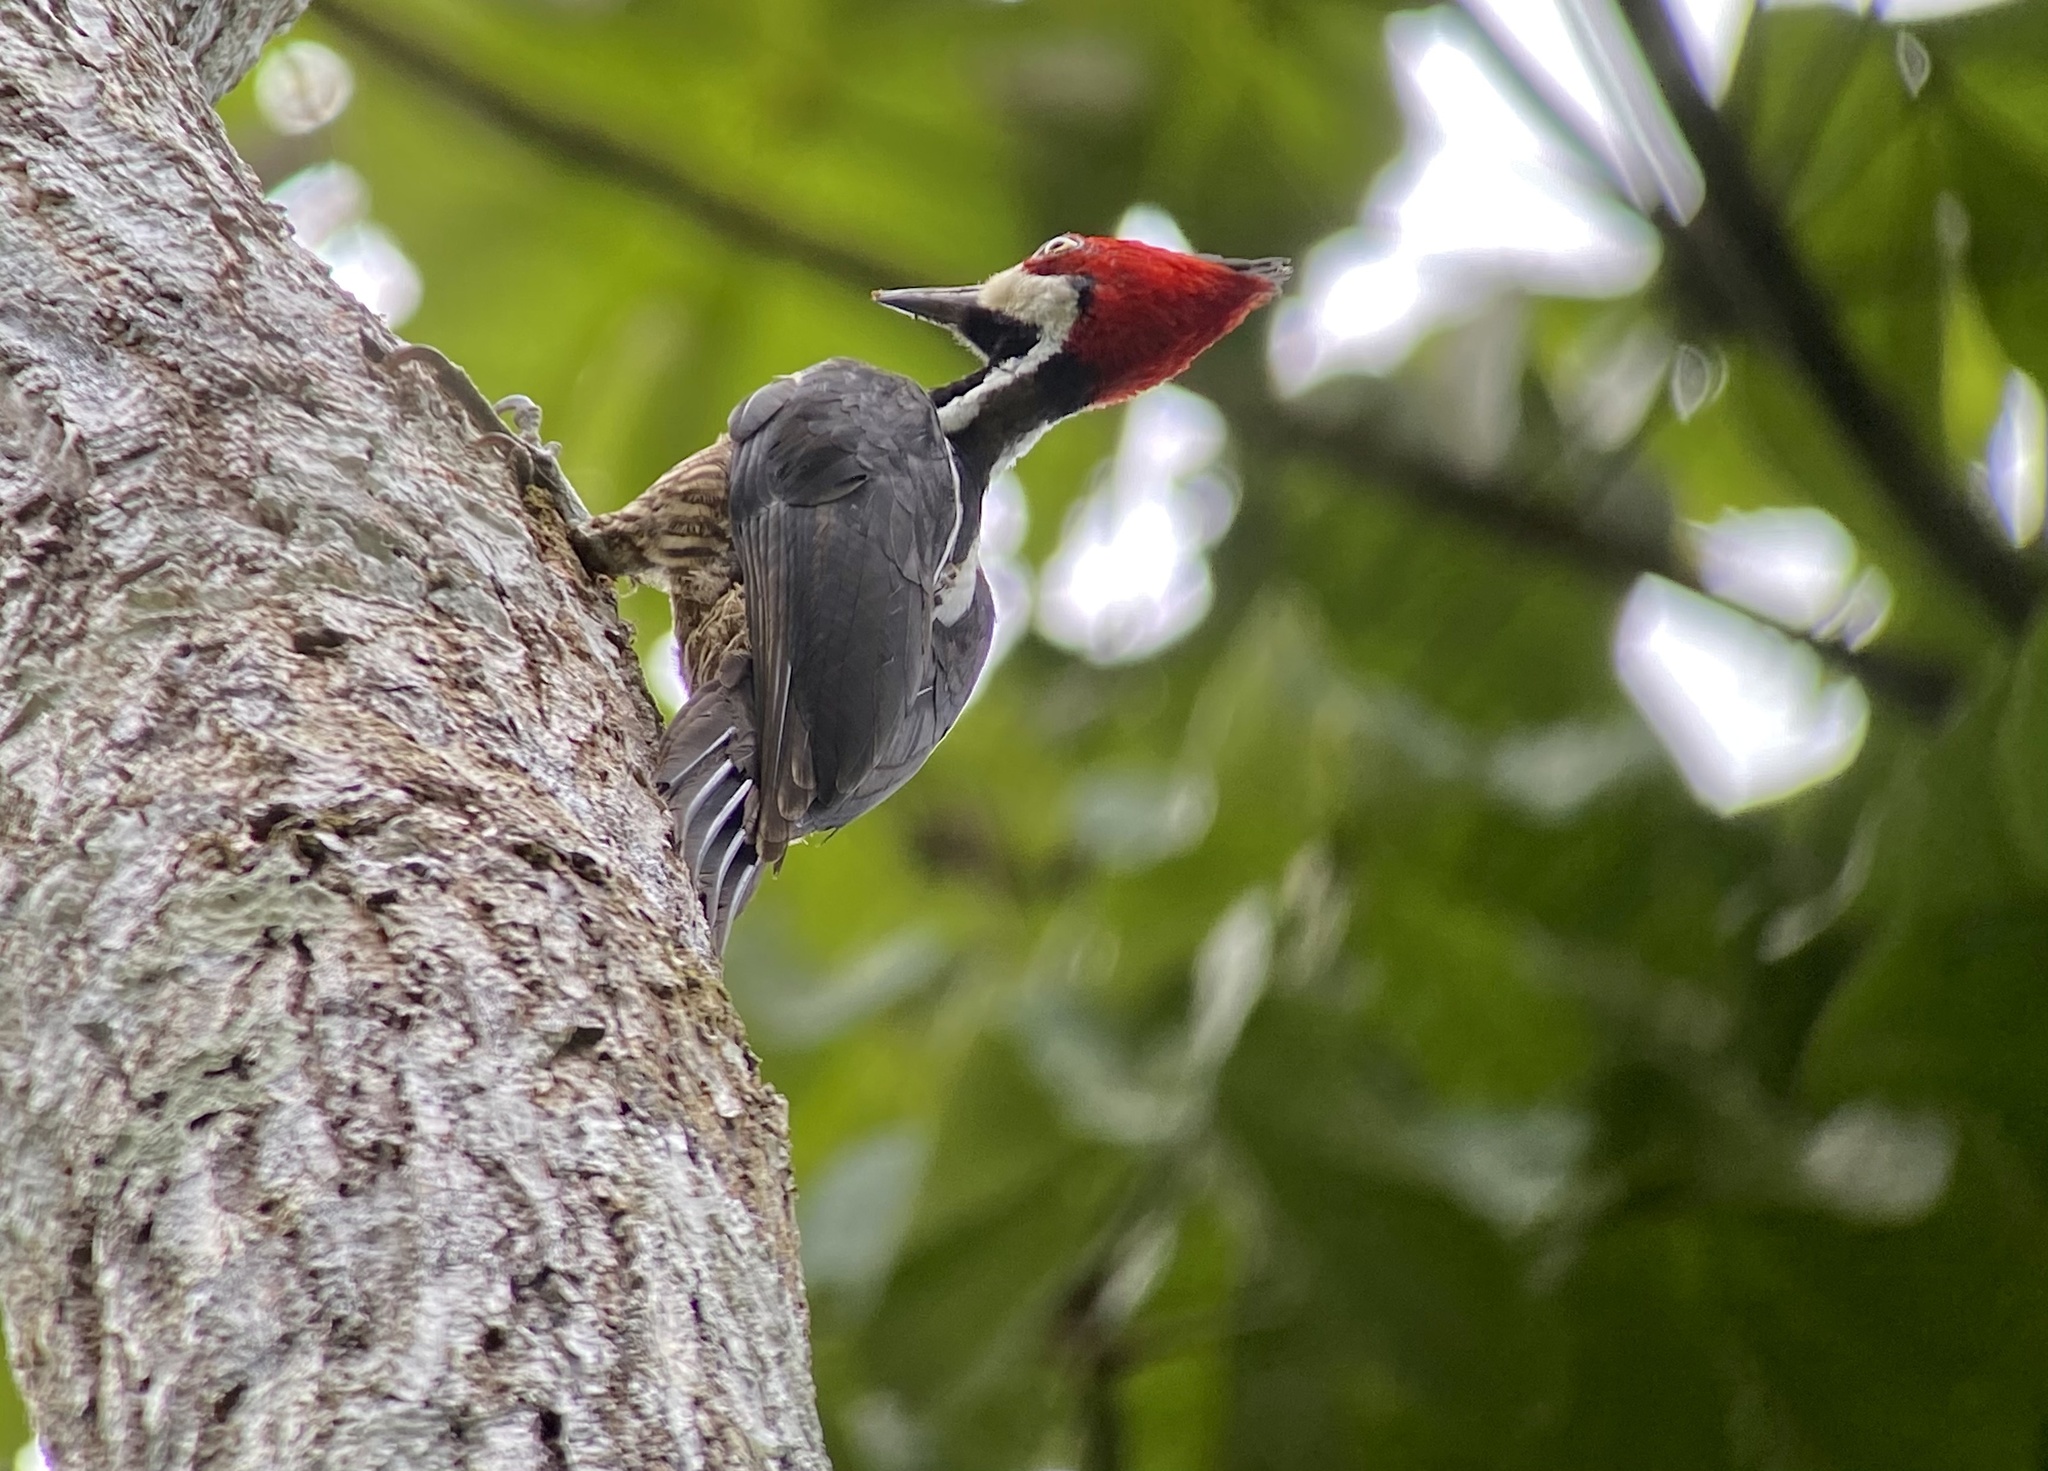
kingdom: Animalia
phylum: Chordata
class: Aves
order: Piciformes
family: Picidae
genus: Campephilus
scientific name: Campephilus melanoleucos
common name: Crimson-crested woodpecker
